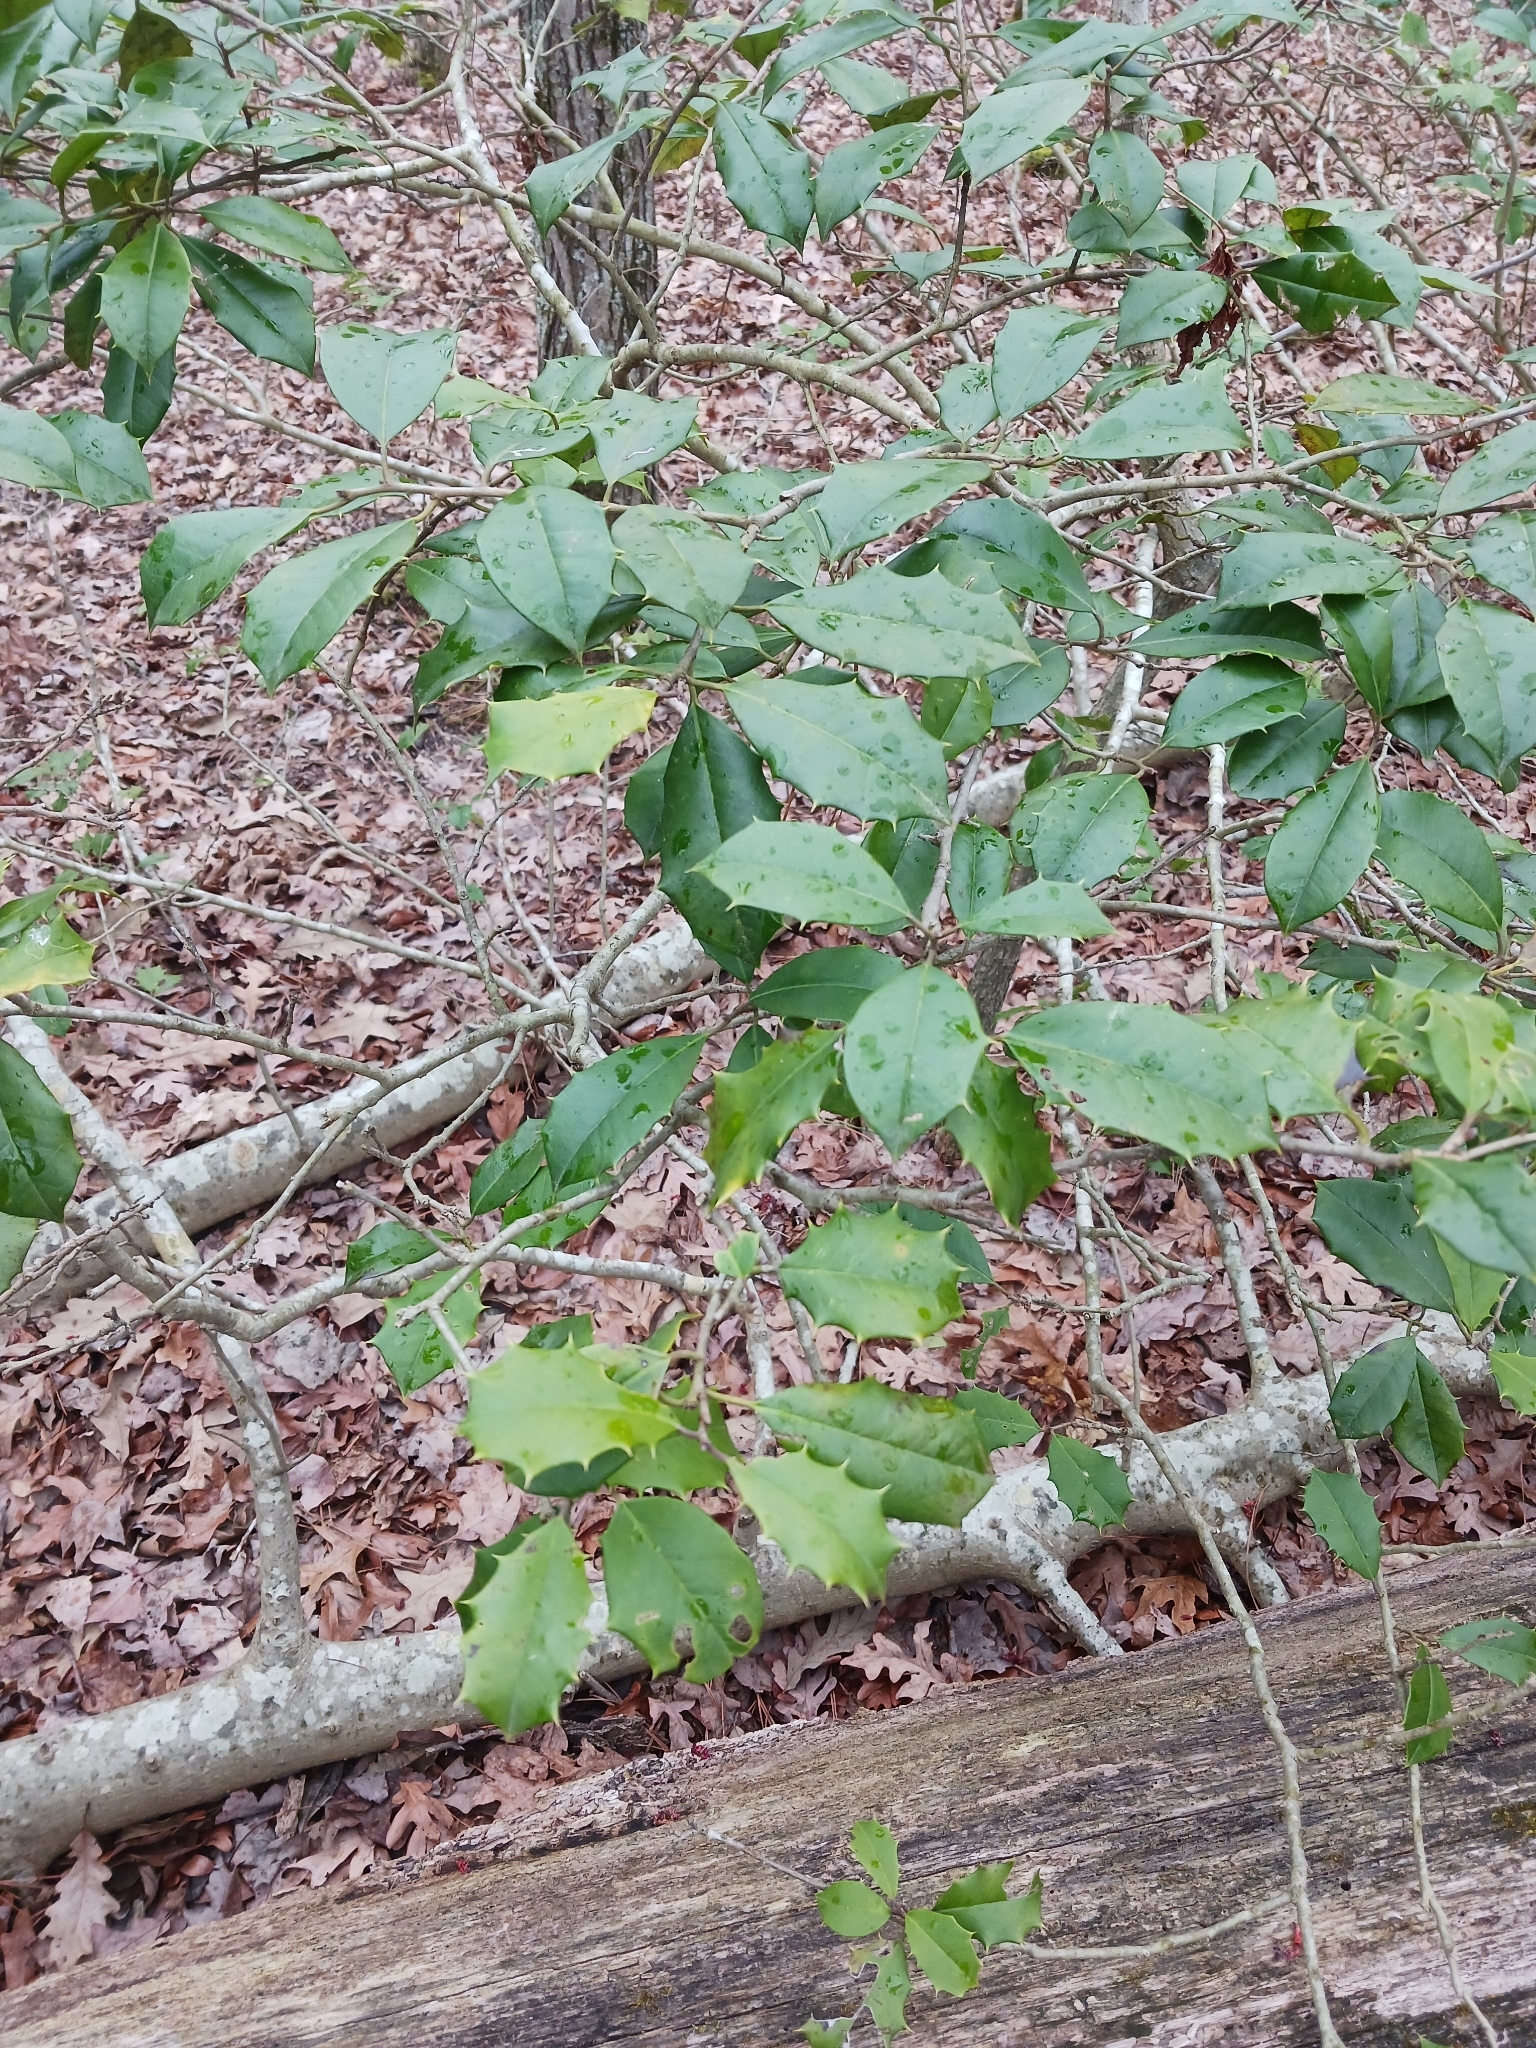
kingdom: Plantae
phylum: Tracheophyta
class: Magnoliopsida
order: Aquifoliales
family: Aquifoliaceae
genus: Ilex
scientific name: Ilex opaca
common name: American holly
